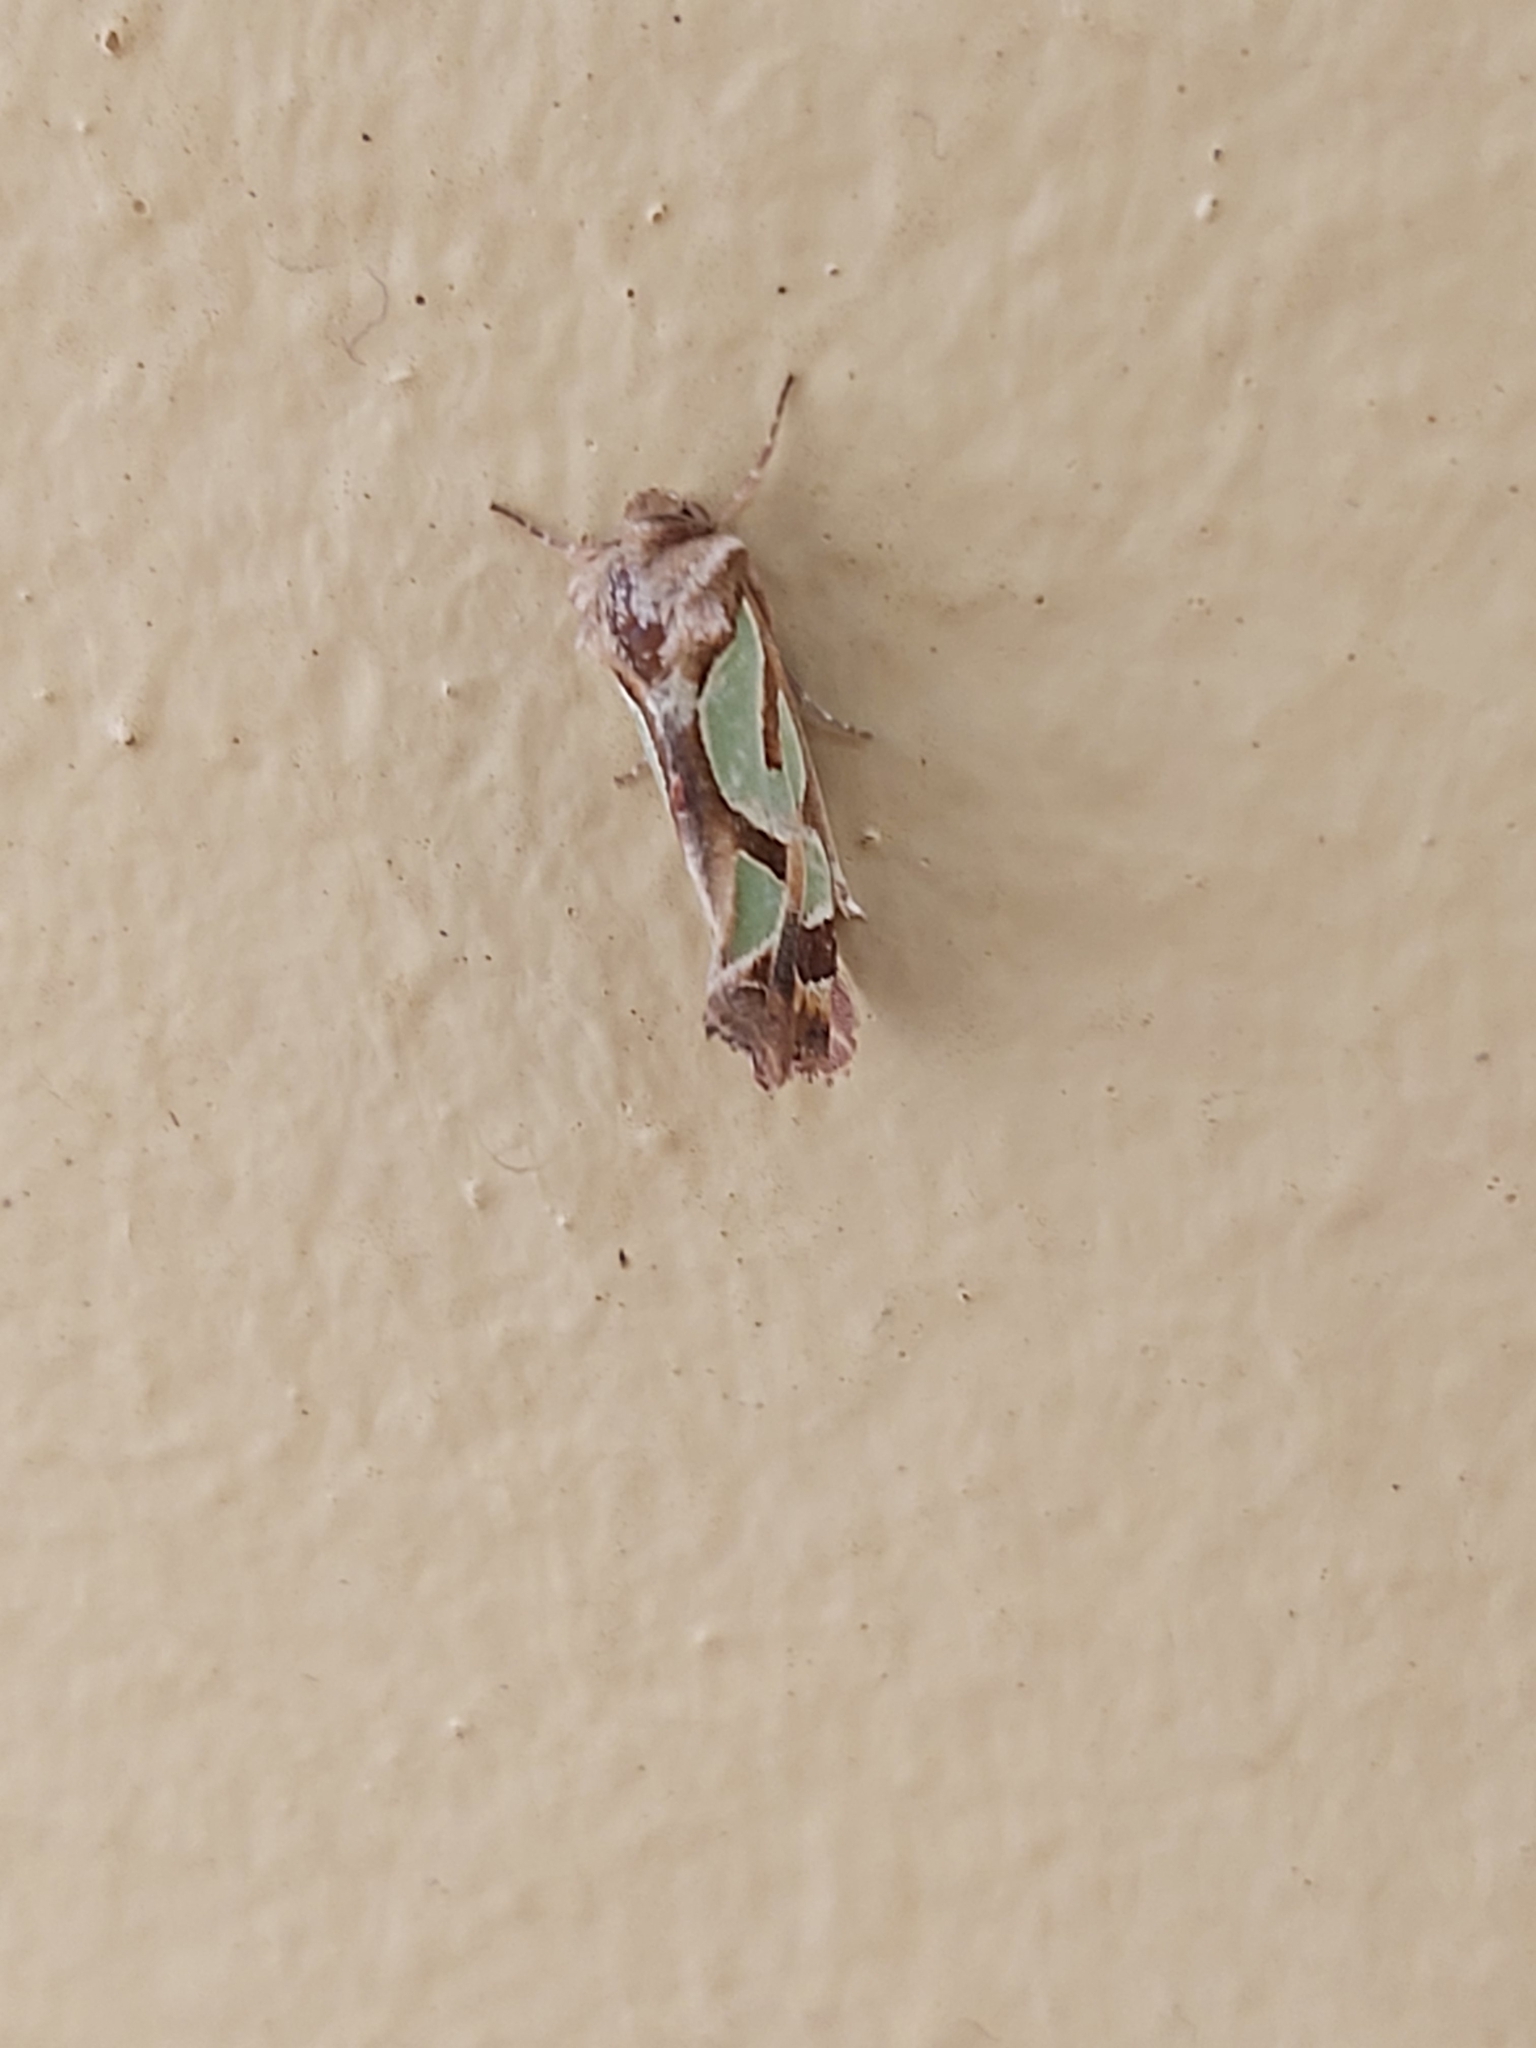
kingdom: Animalia
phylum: Arthropoda
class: Insecta
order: Lepidoptera
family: Noctuidae
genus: Cosmodes
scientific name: Cosmodes elegans
